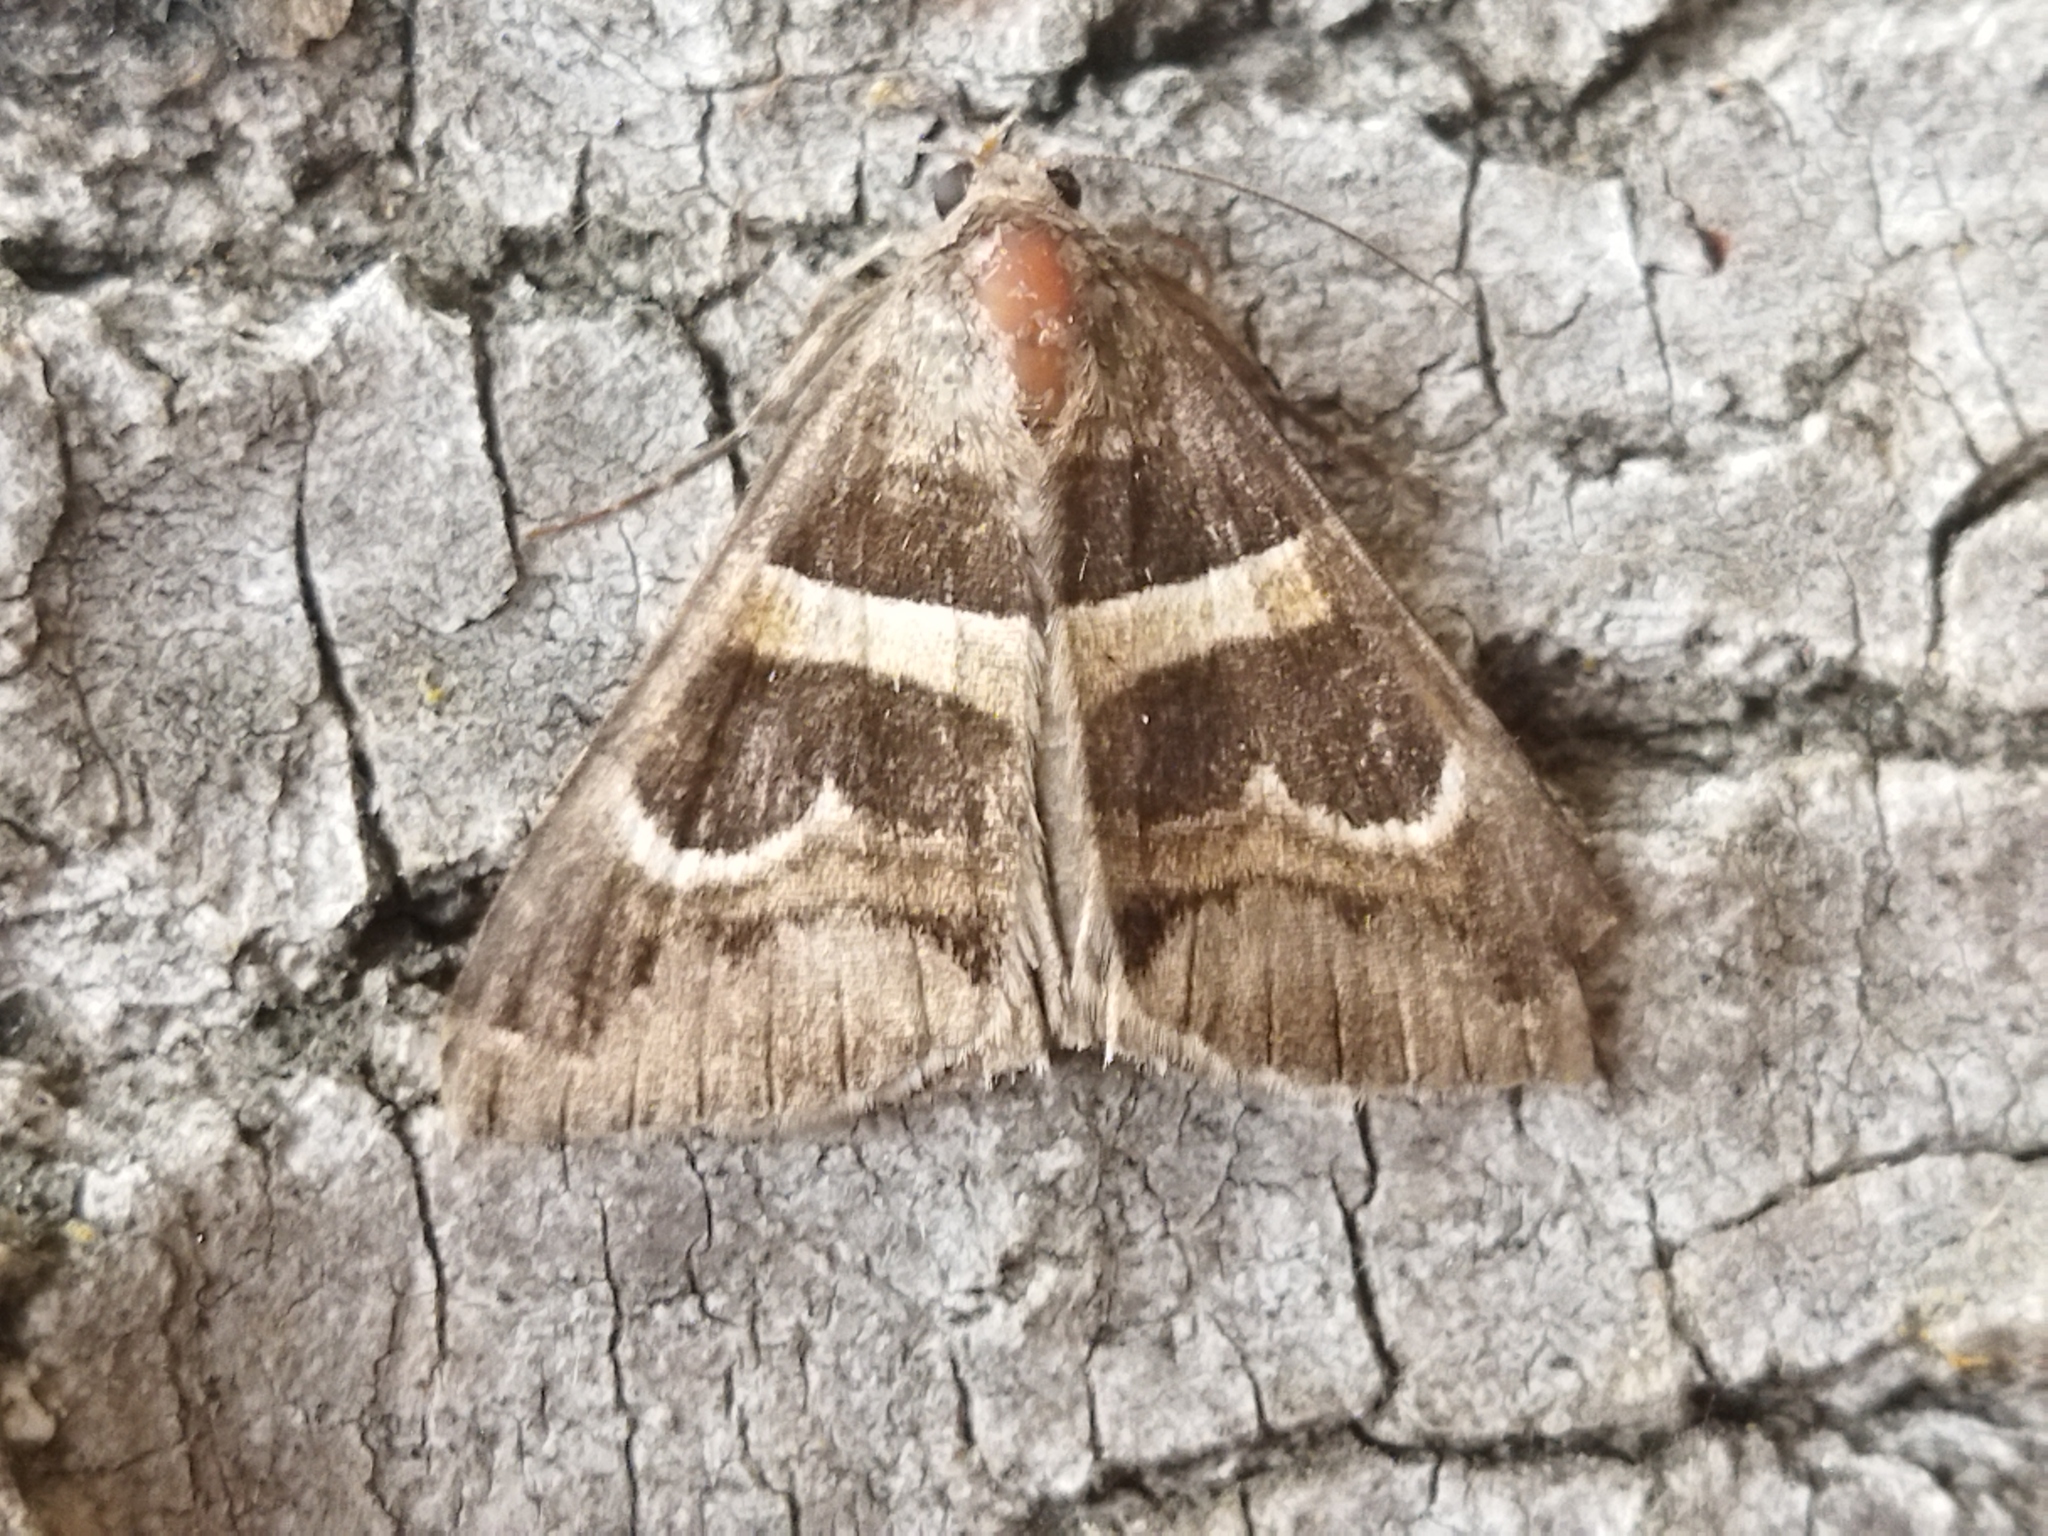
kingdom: Animalia
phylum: Arthropoda
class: Insecta
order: Lepidoptera
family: Erebidae
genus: Grammodes
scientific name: Grammodes stolida
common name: Geometrician
